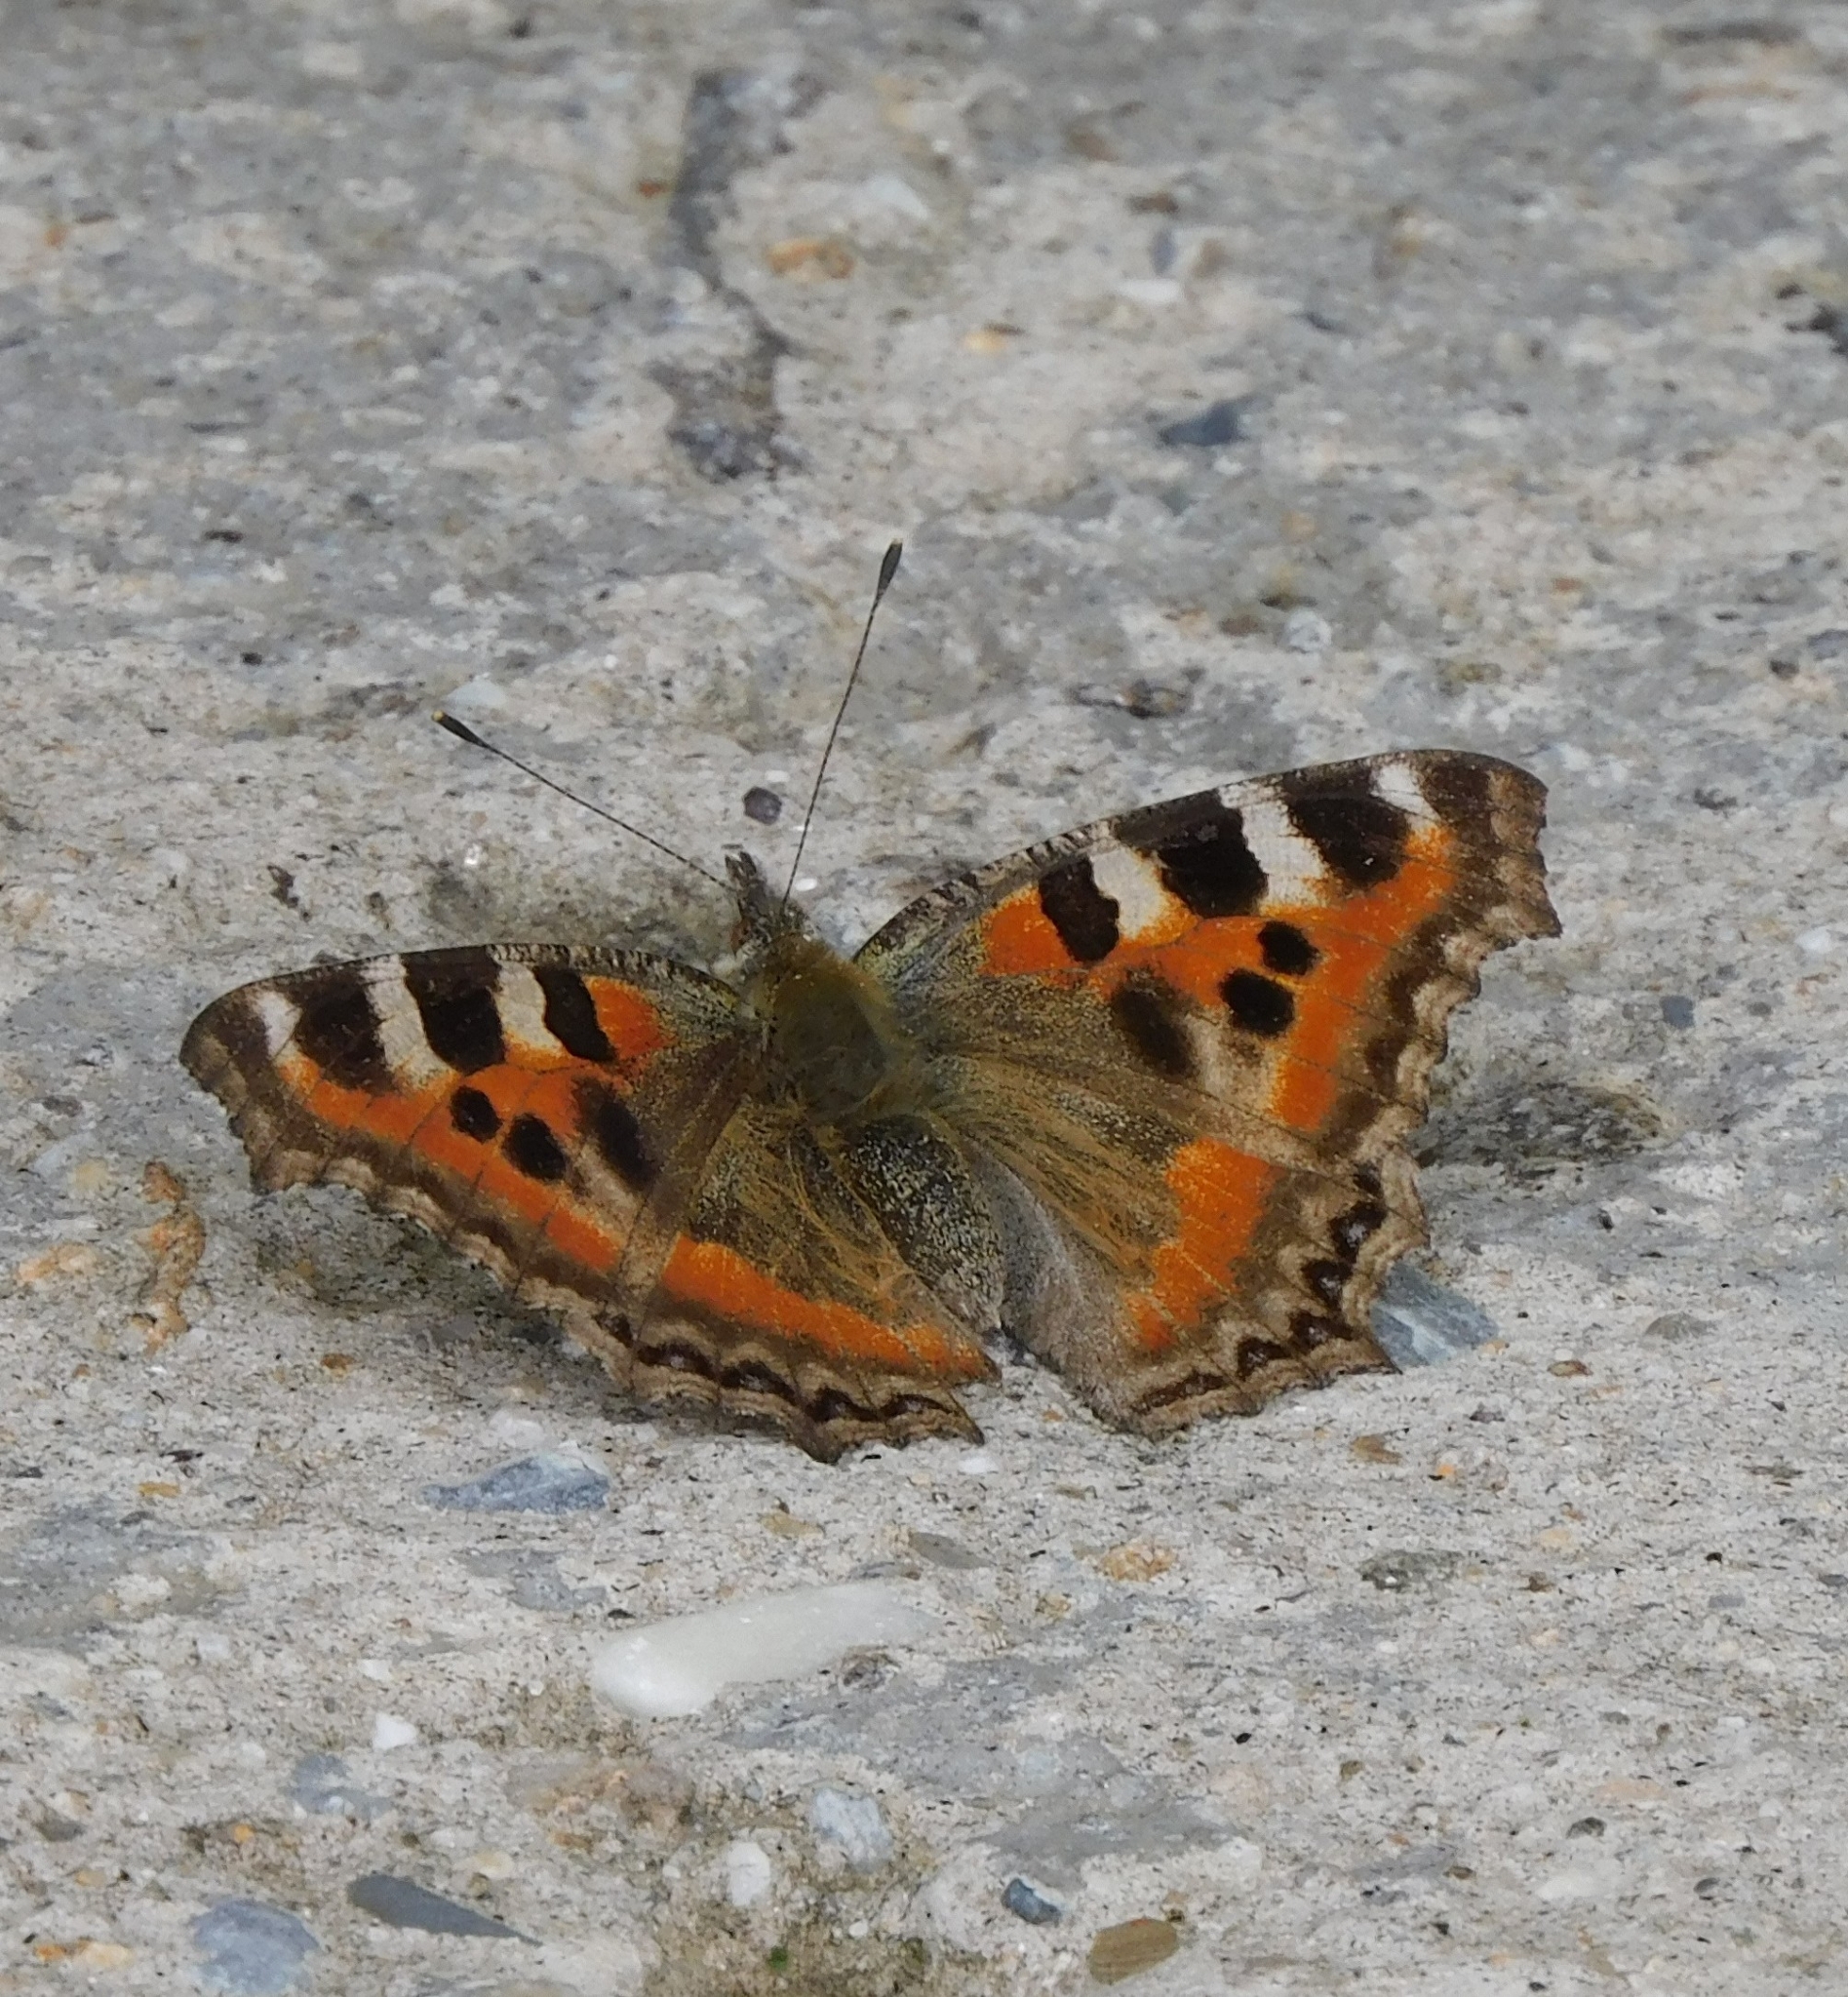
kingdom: Animalia
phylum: Arthropoda
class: Insecta
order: Lepidoptera
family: Nymphalidae
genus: Aglais
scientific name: Aglais caschmirensis
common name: Indian tortoiseshell
